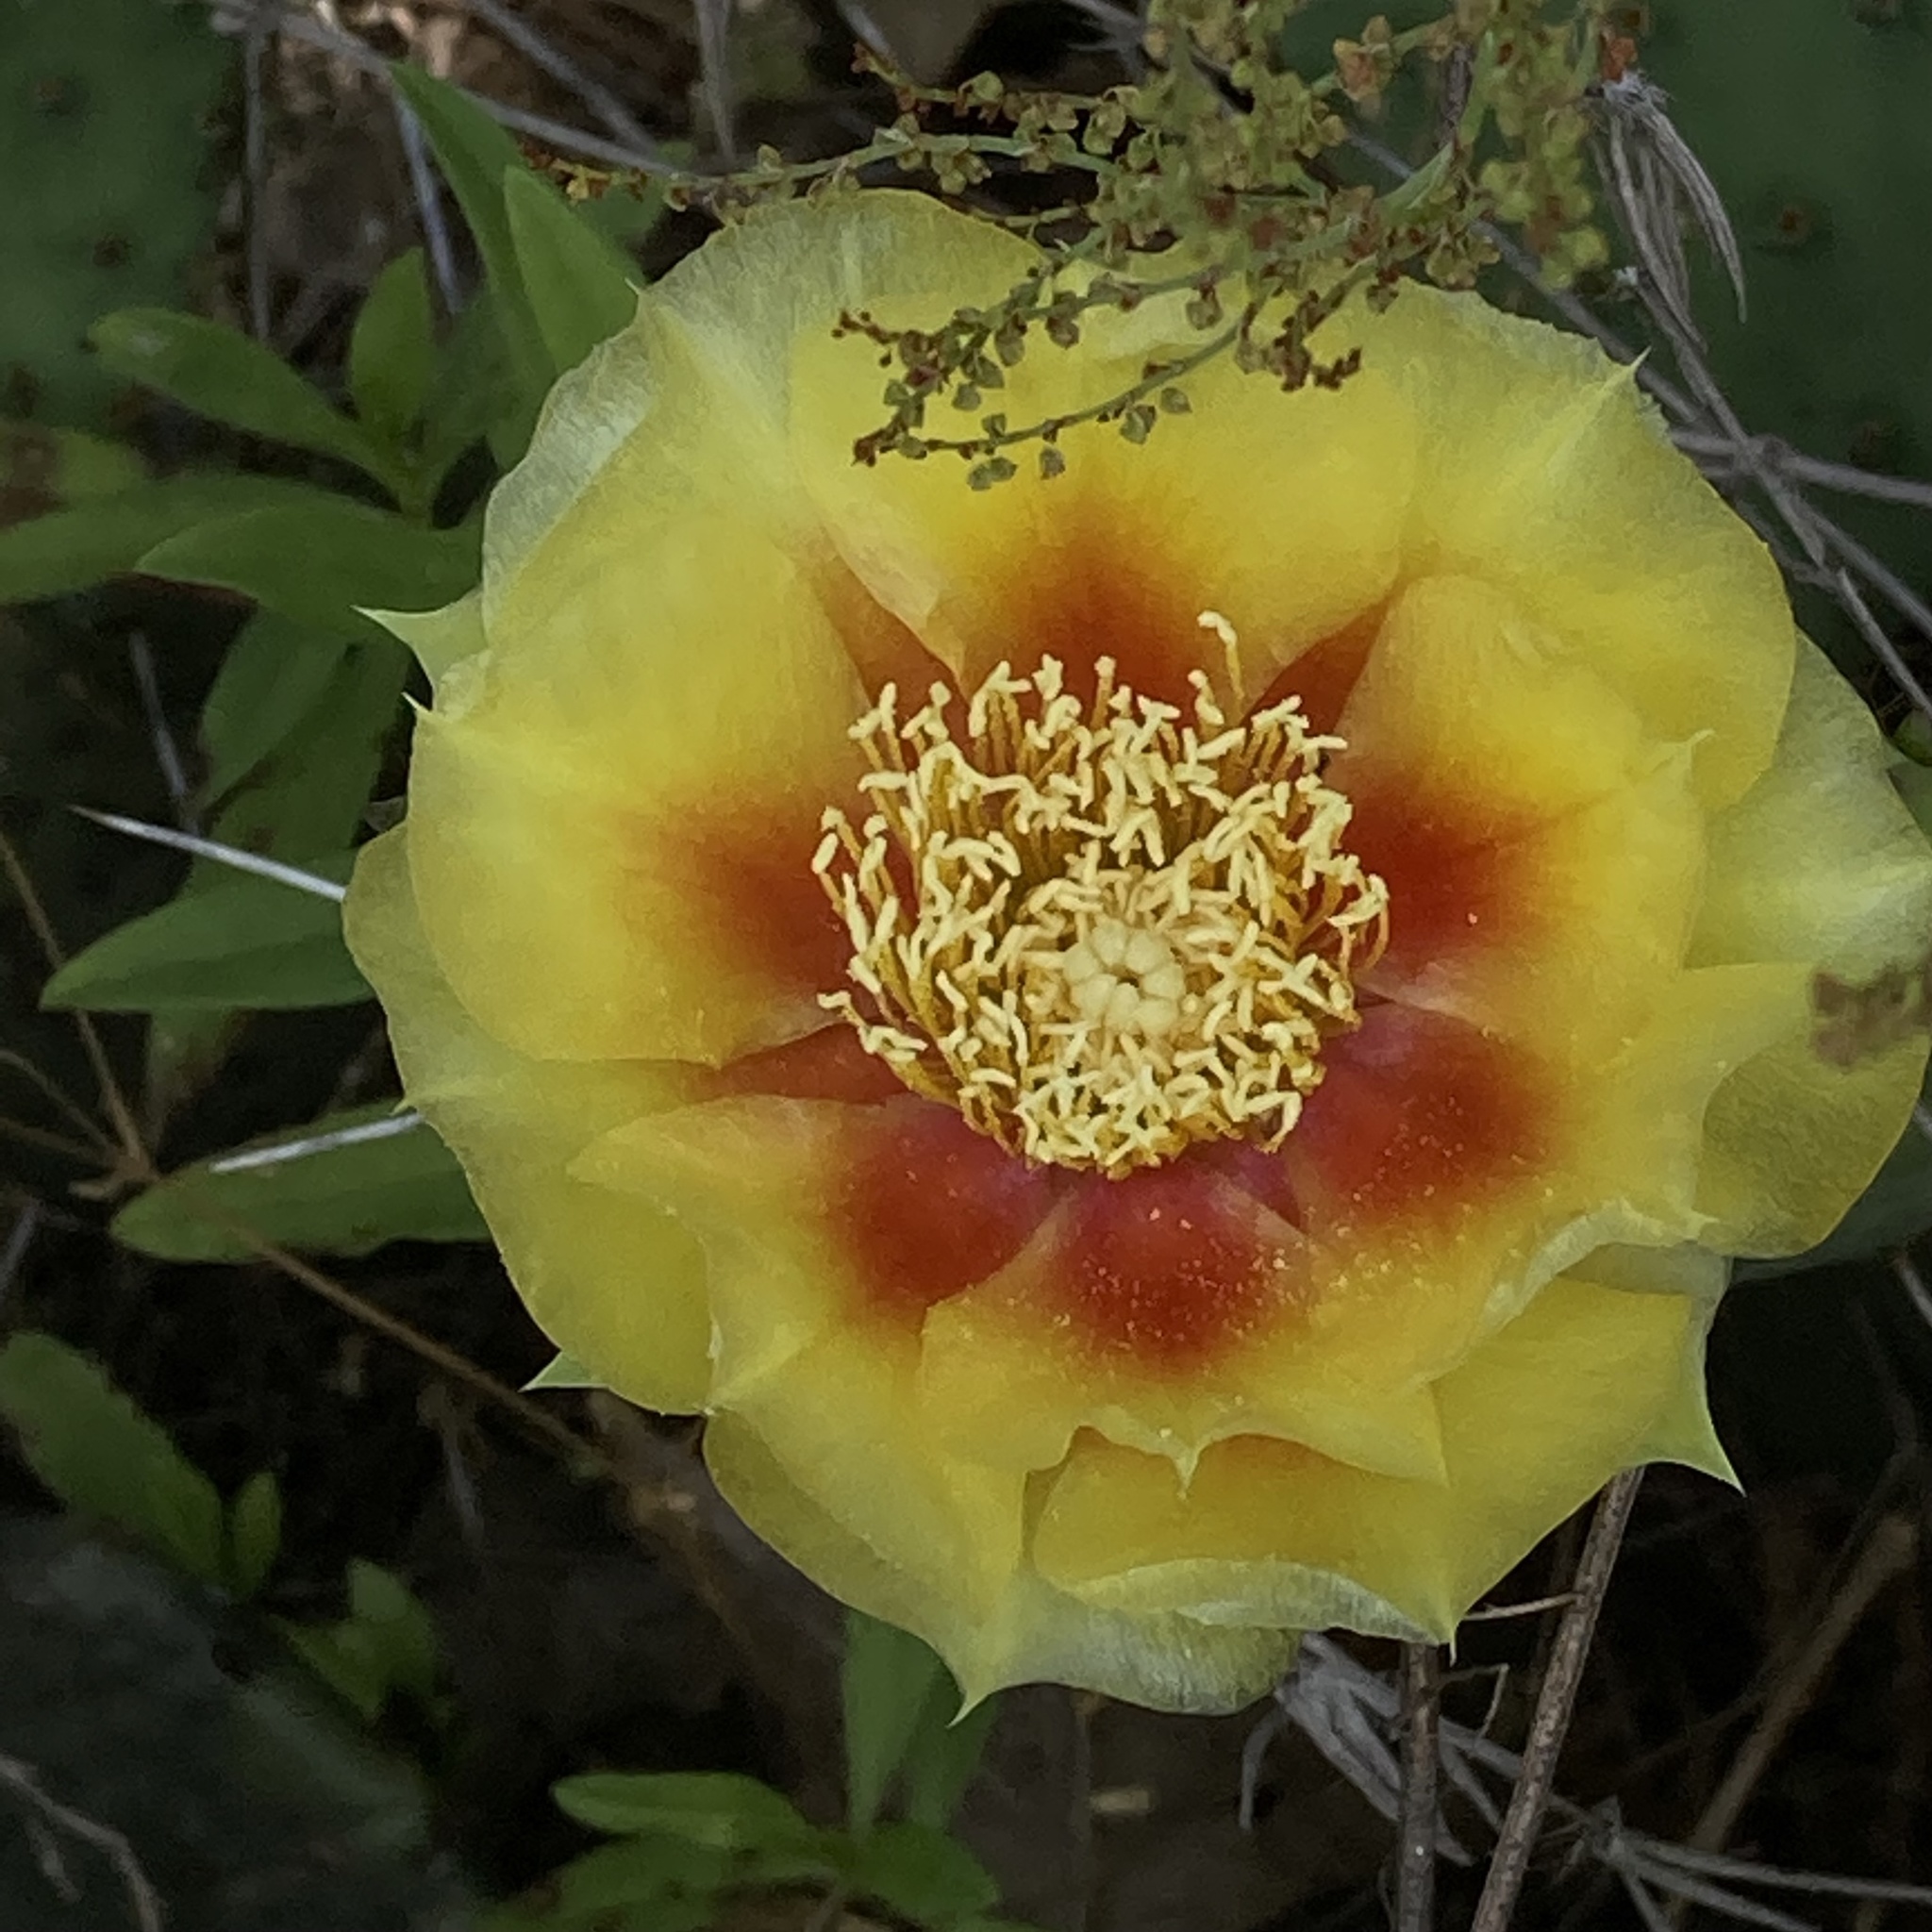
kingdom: Plantae
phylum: Tracheophyta
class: Magnoliopsida
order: Caryophyllales
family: Cactaceae
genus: Opuntia
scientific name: Opuntia humifusa
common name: Eastern prickly-pear
